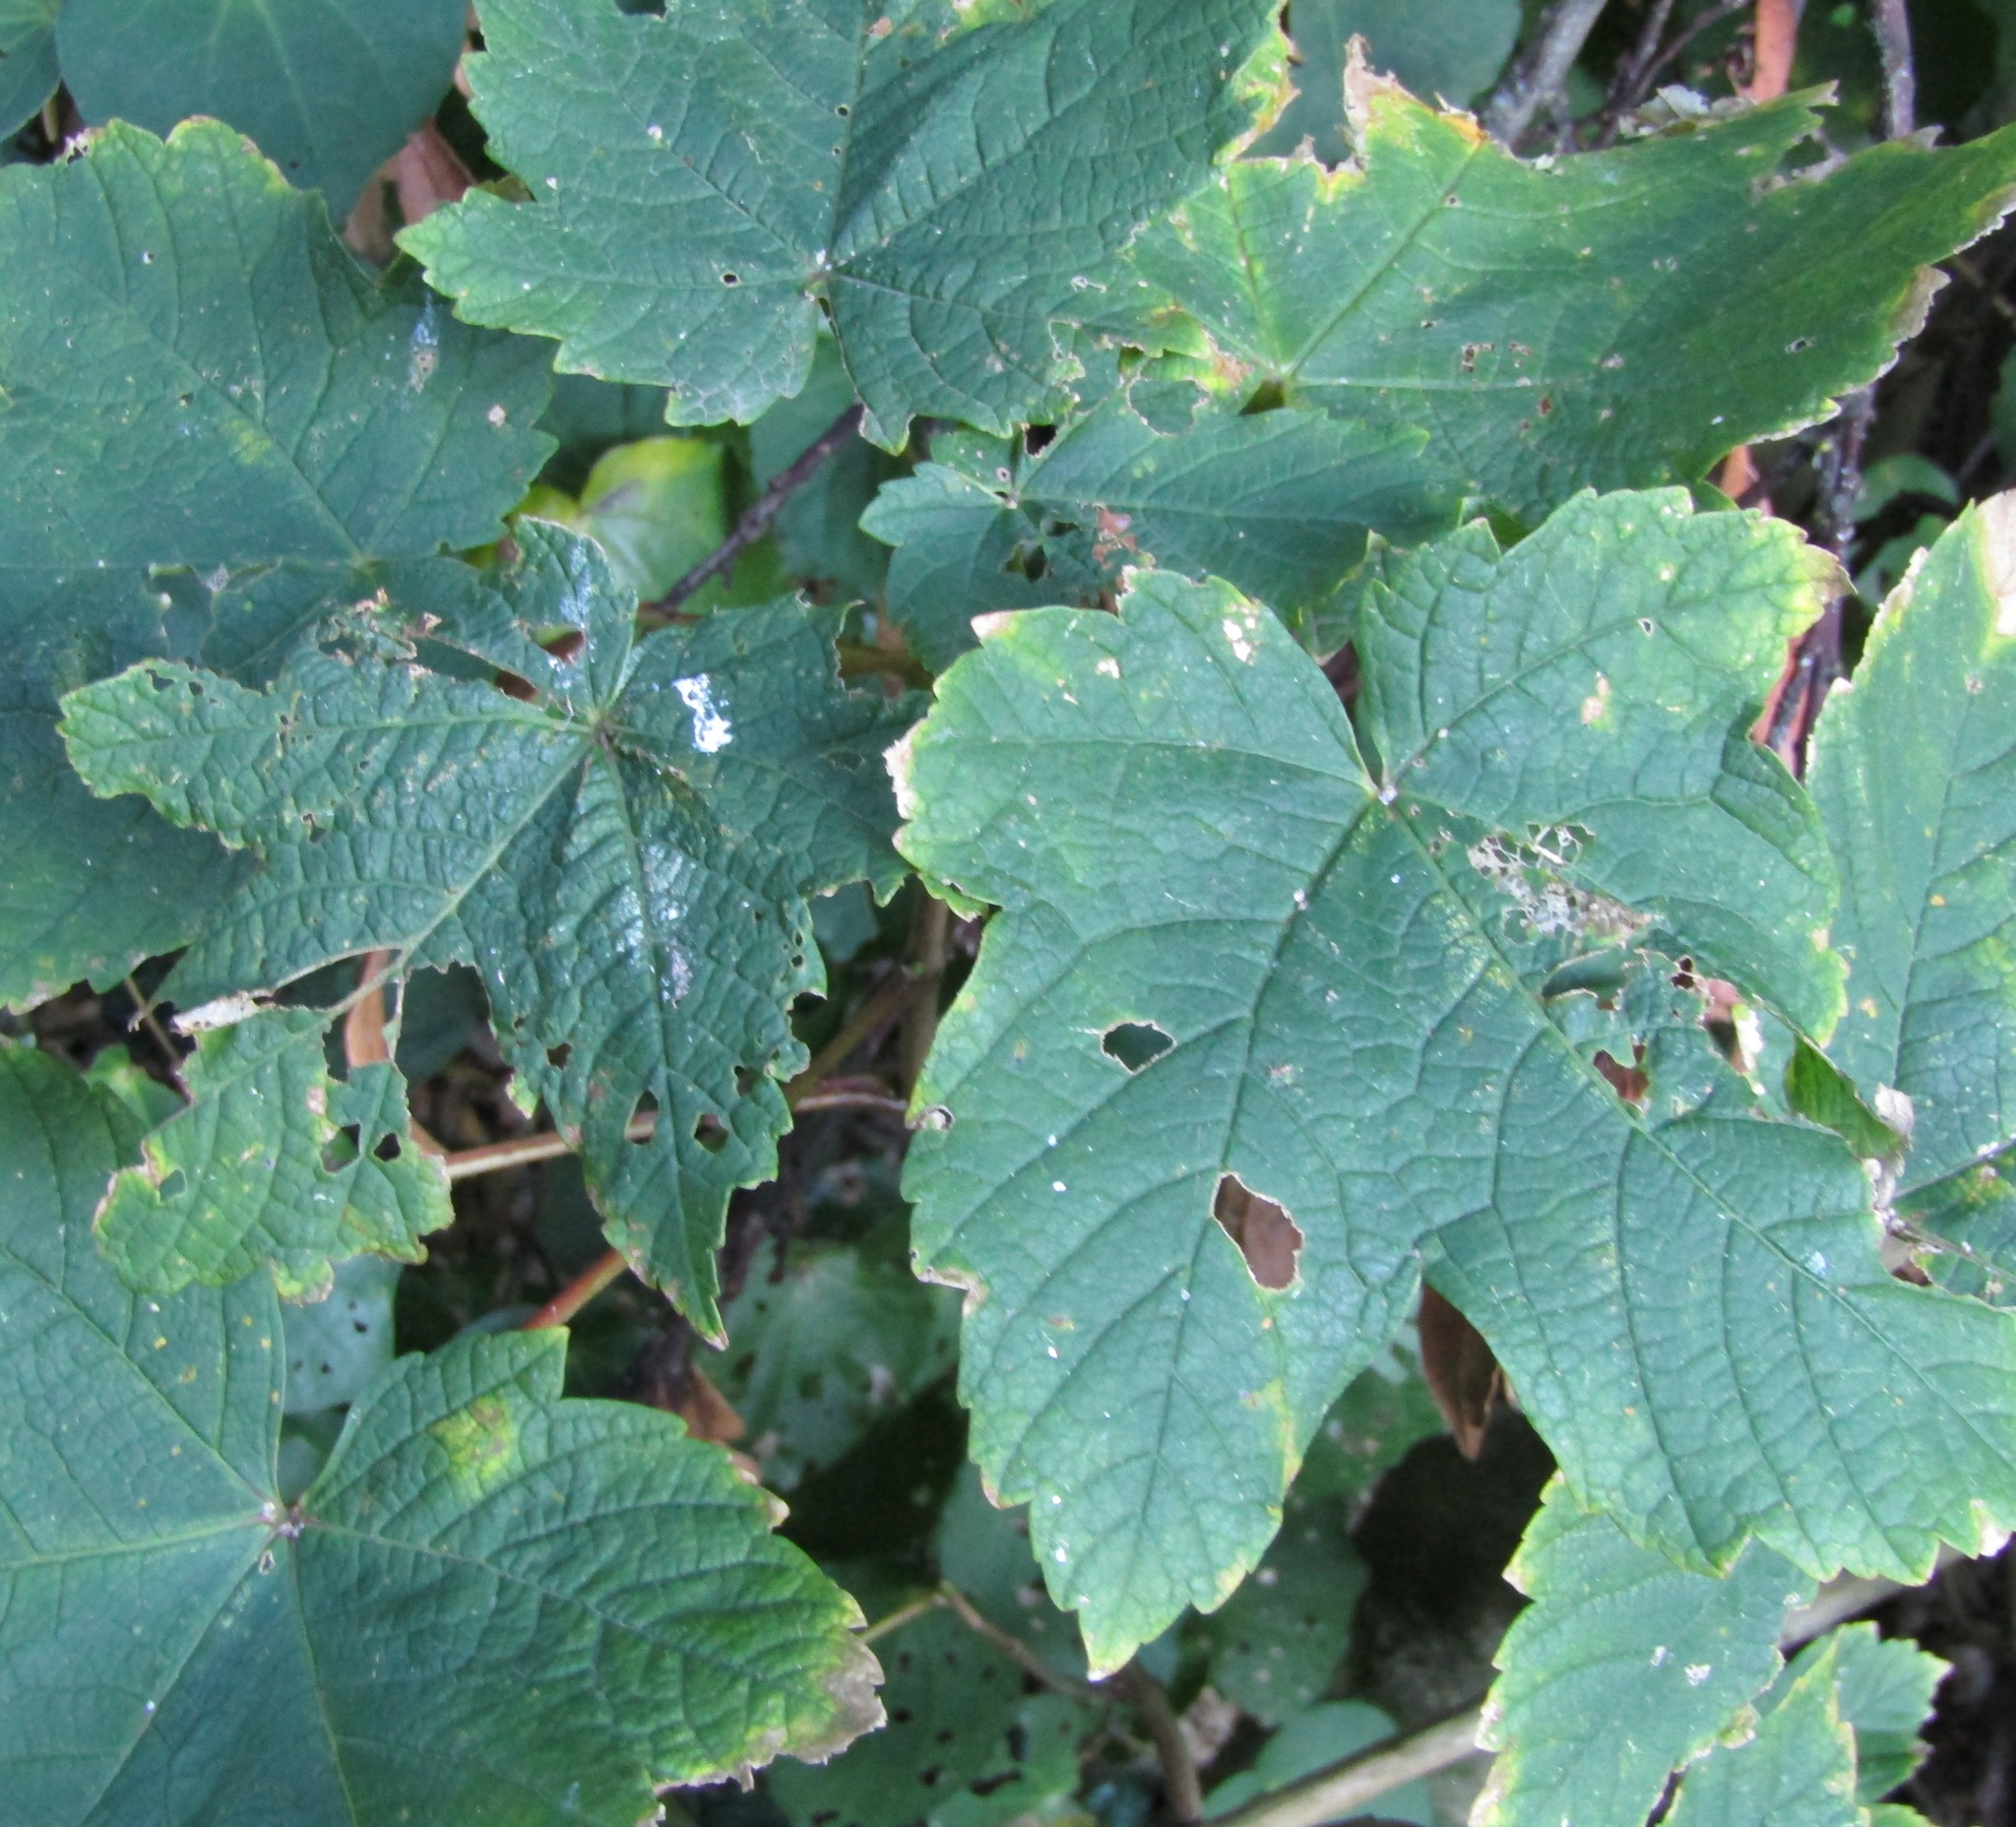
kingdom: Plantae
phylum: Tracheophyta
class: Magnoliopsida
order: Sapindales
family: Sapindaceae
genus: Acer
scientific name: Acer pseudoplatanus
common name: Sycamore
